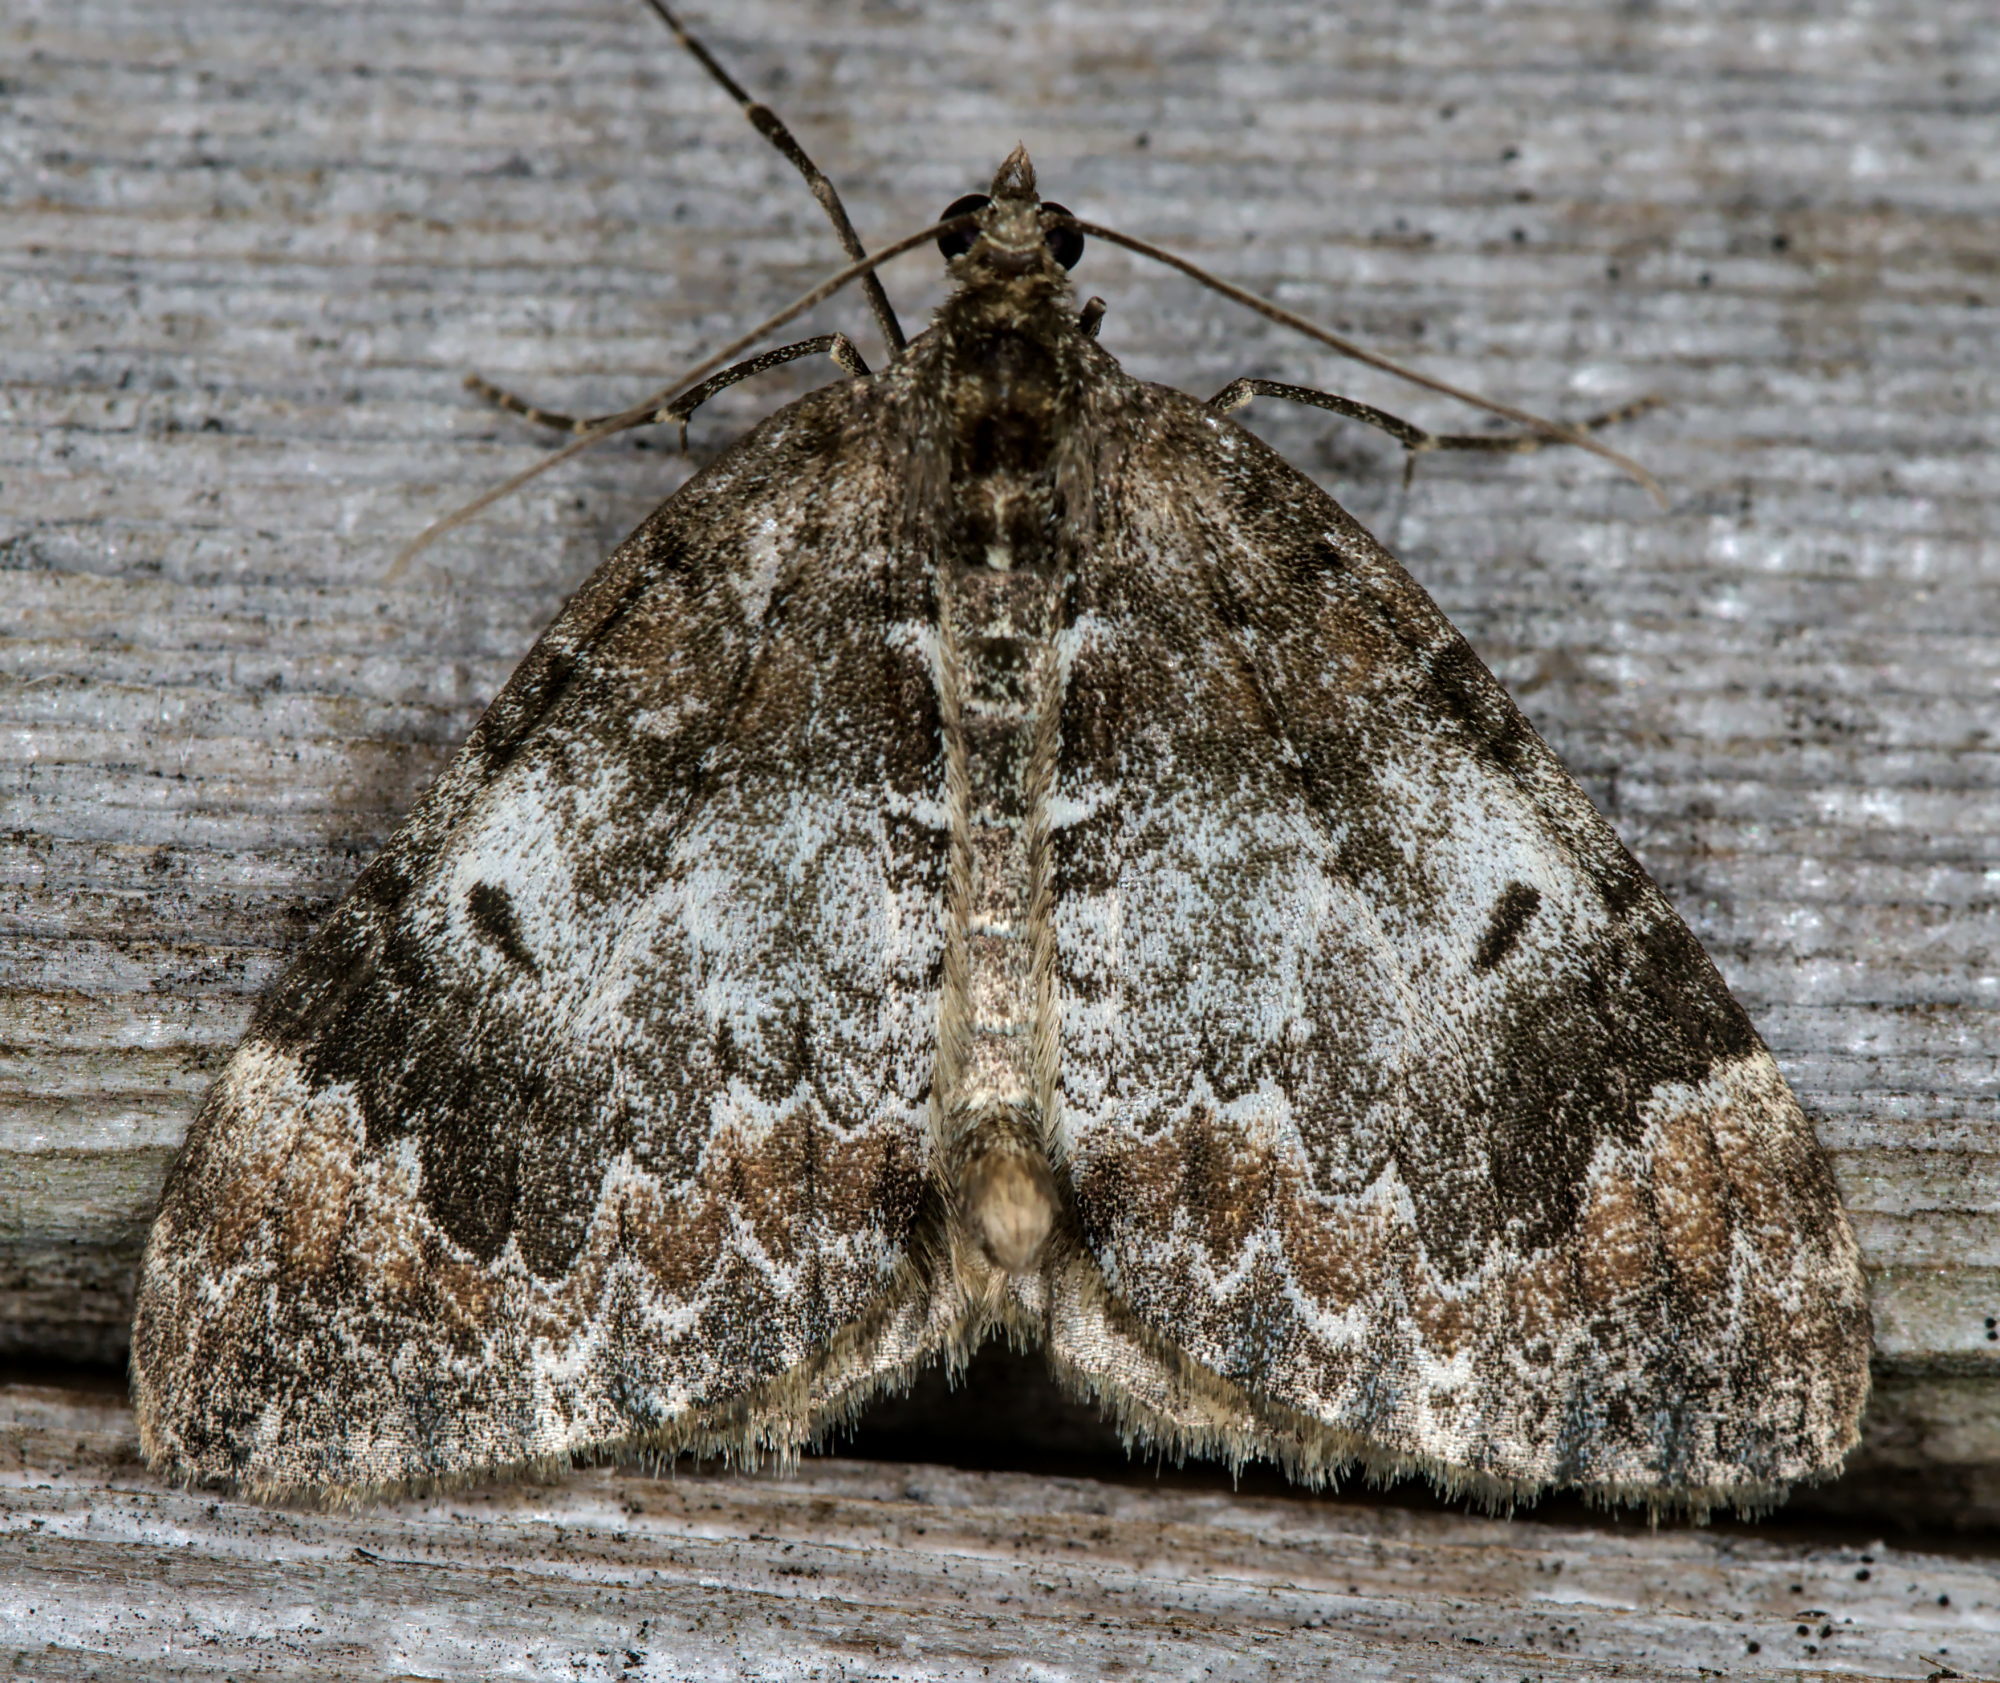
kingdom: Animalia
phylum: Arthropoda
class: Insecta
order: Lepidoptera
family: Geometridae
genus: Dysstroma
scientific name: Dysstroma truncata
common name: Common marbled carpet
